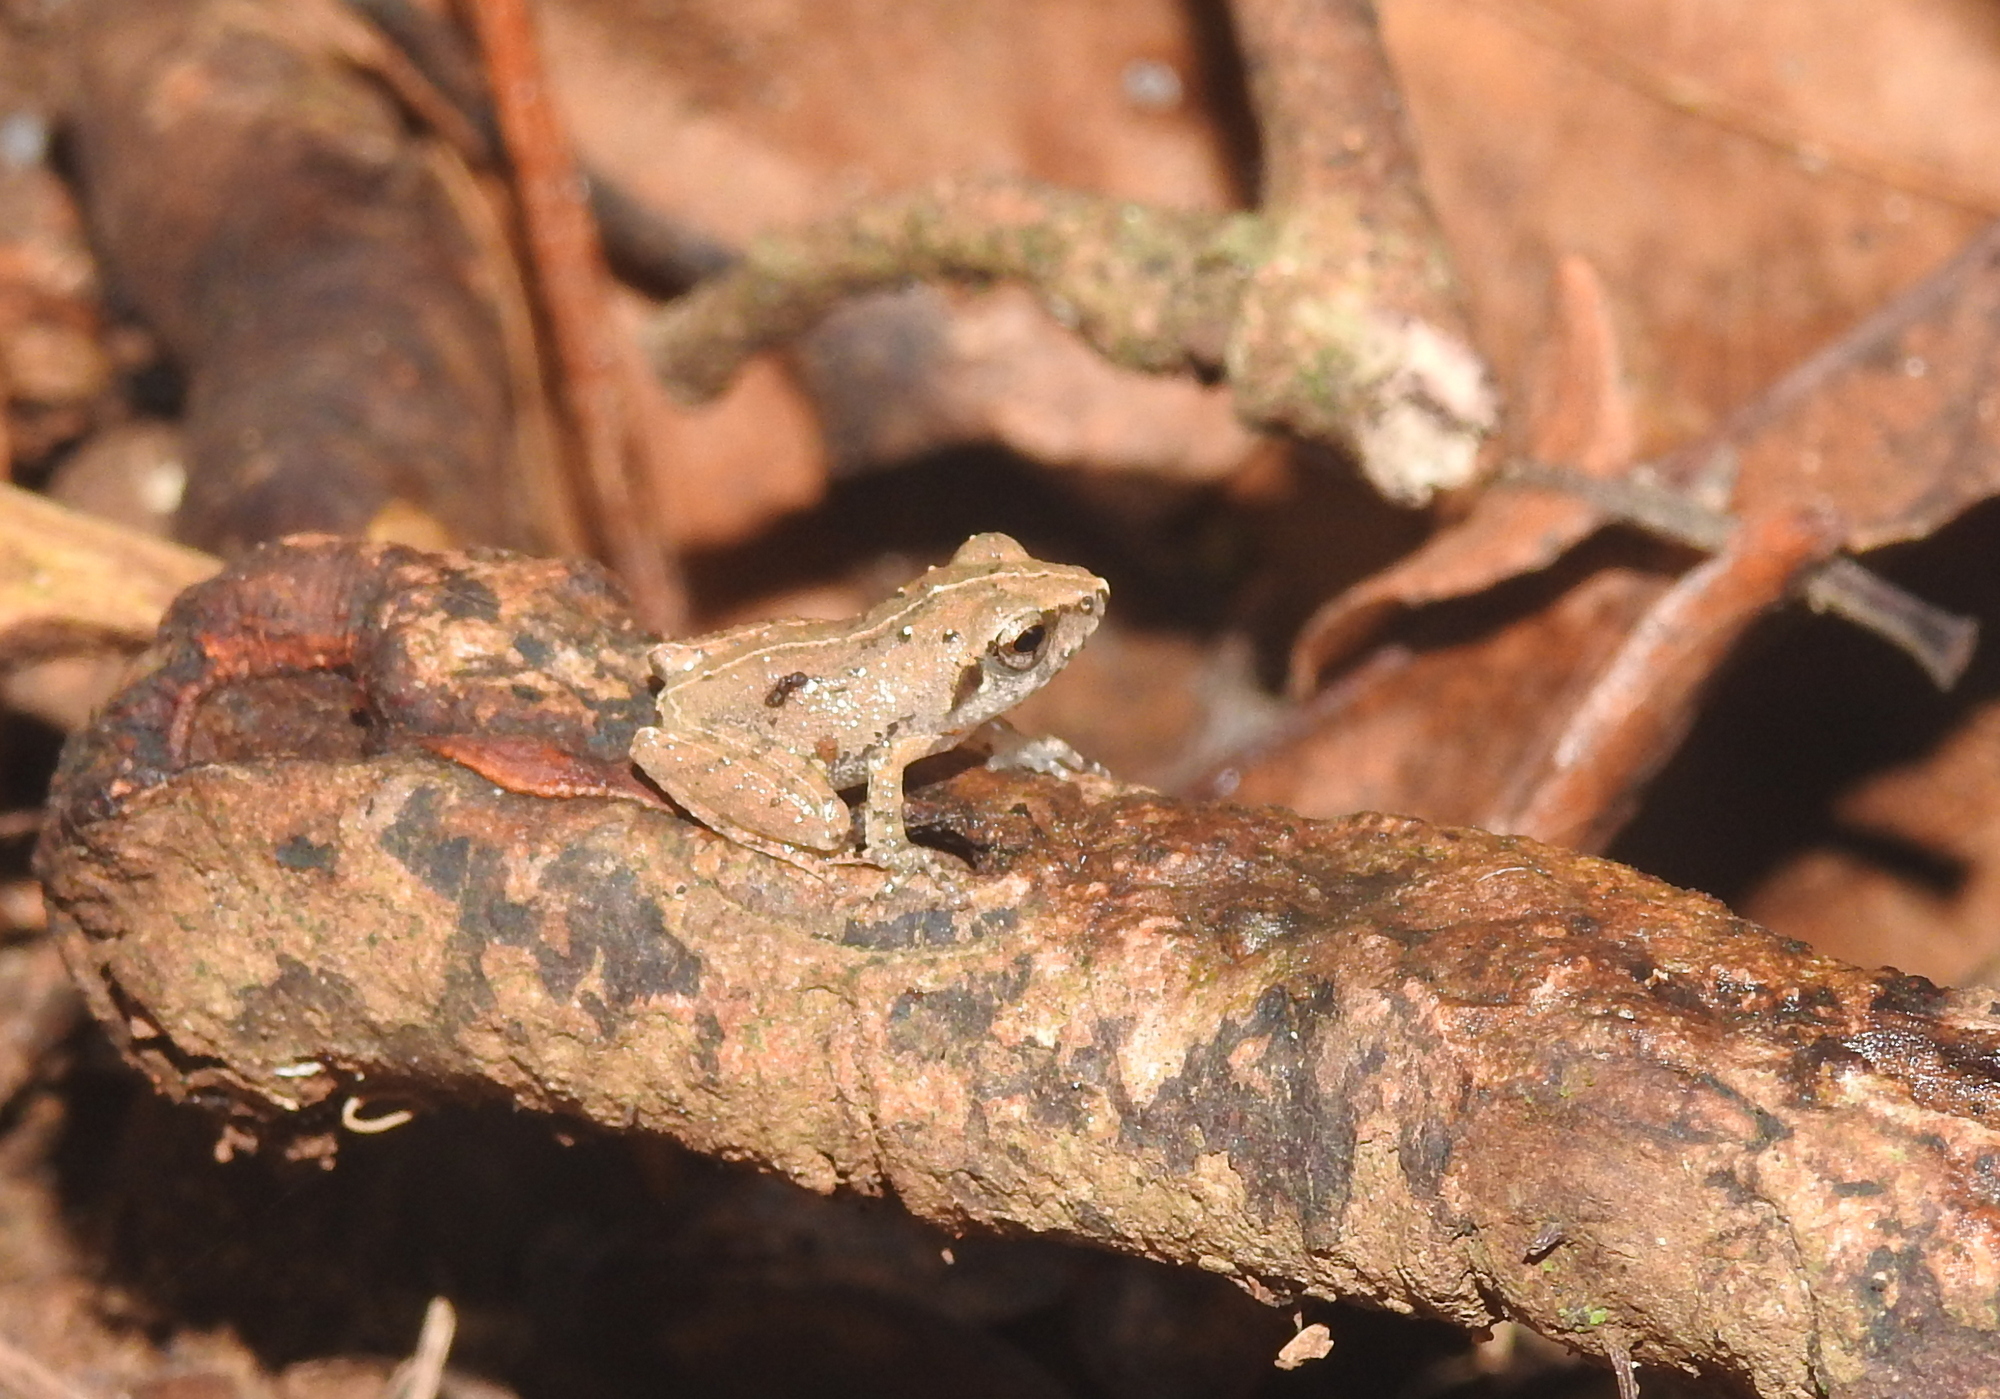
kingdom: Animalia
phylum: Chordata
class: Amphibia
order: Anura
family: Rhacophoridae
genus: Pseudophilautus
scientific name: Pseudophilautus wynaadensis
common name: Dark-eared bush frog
